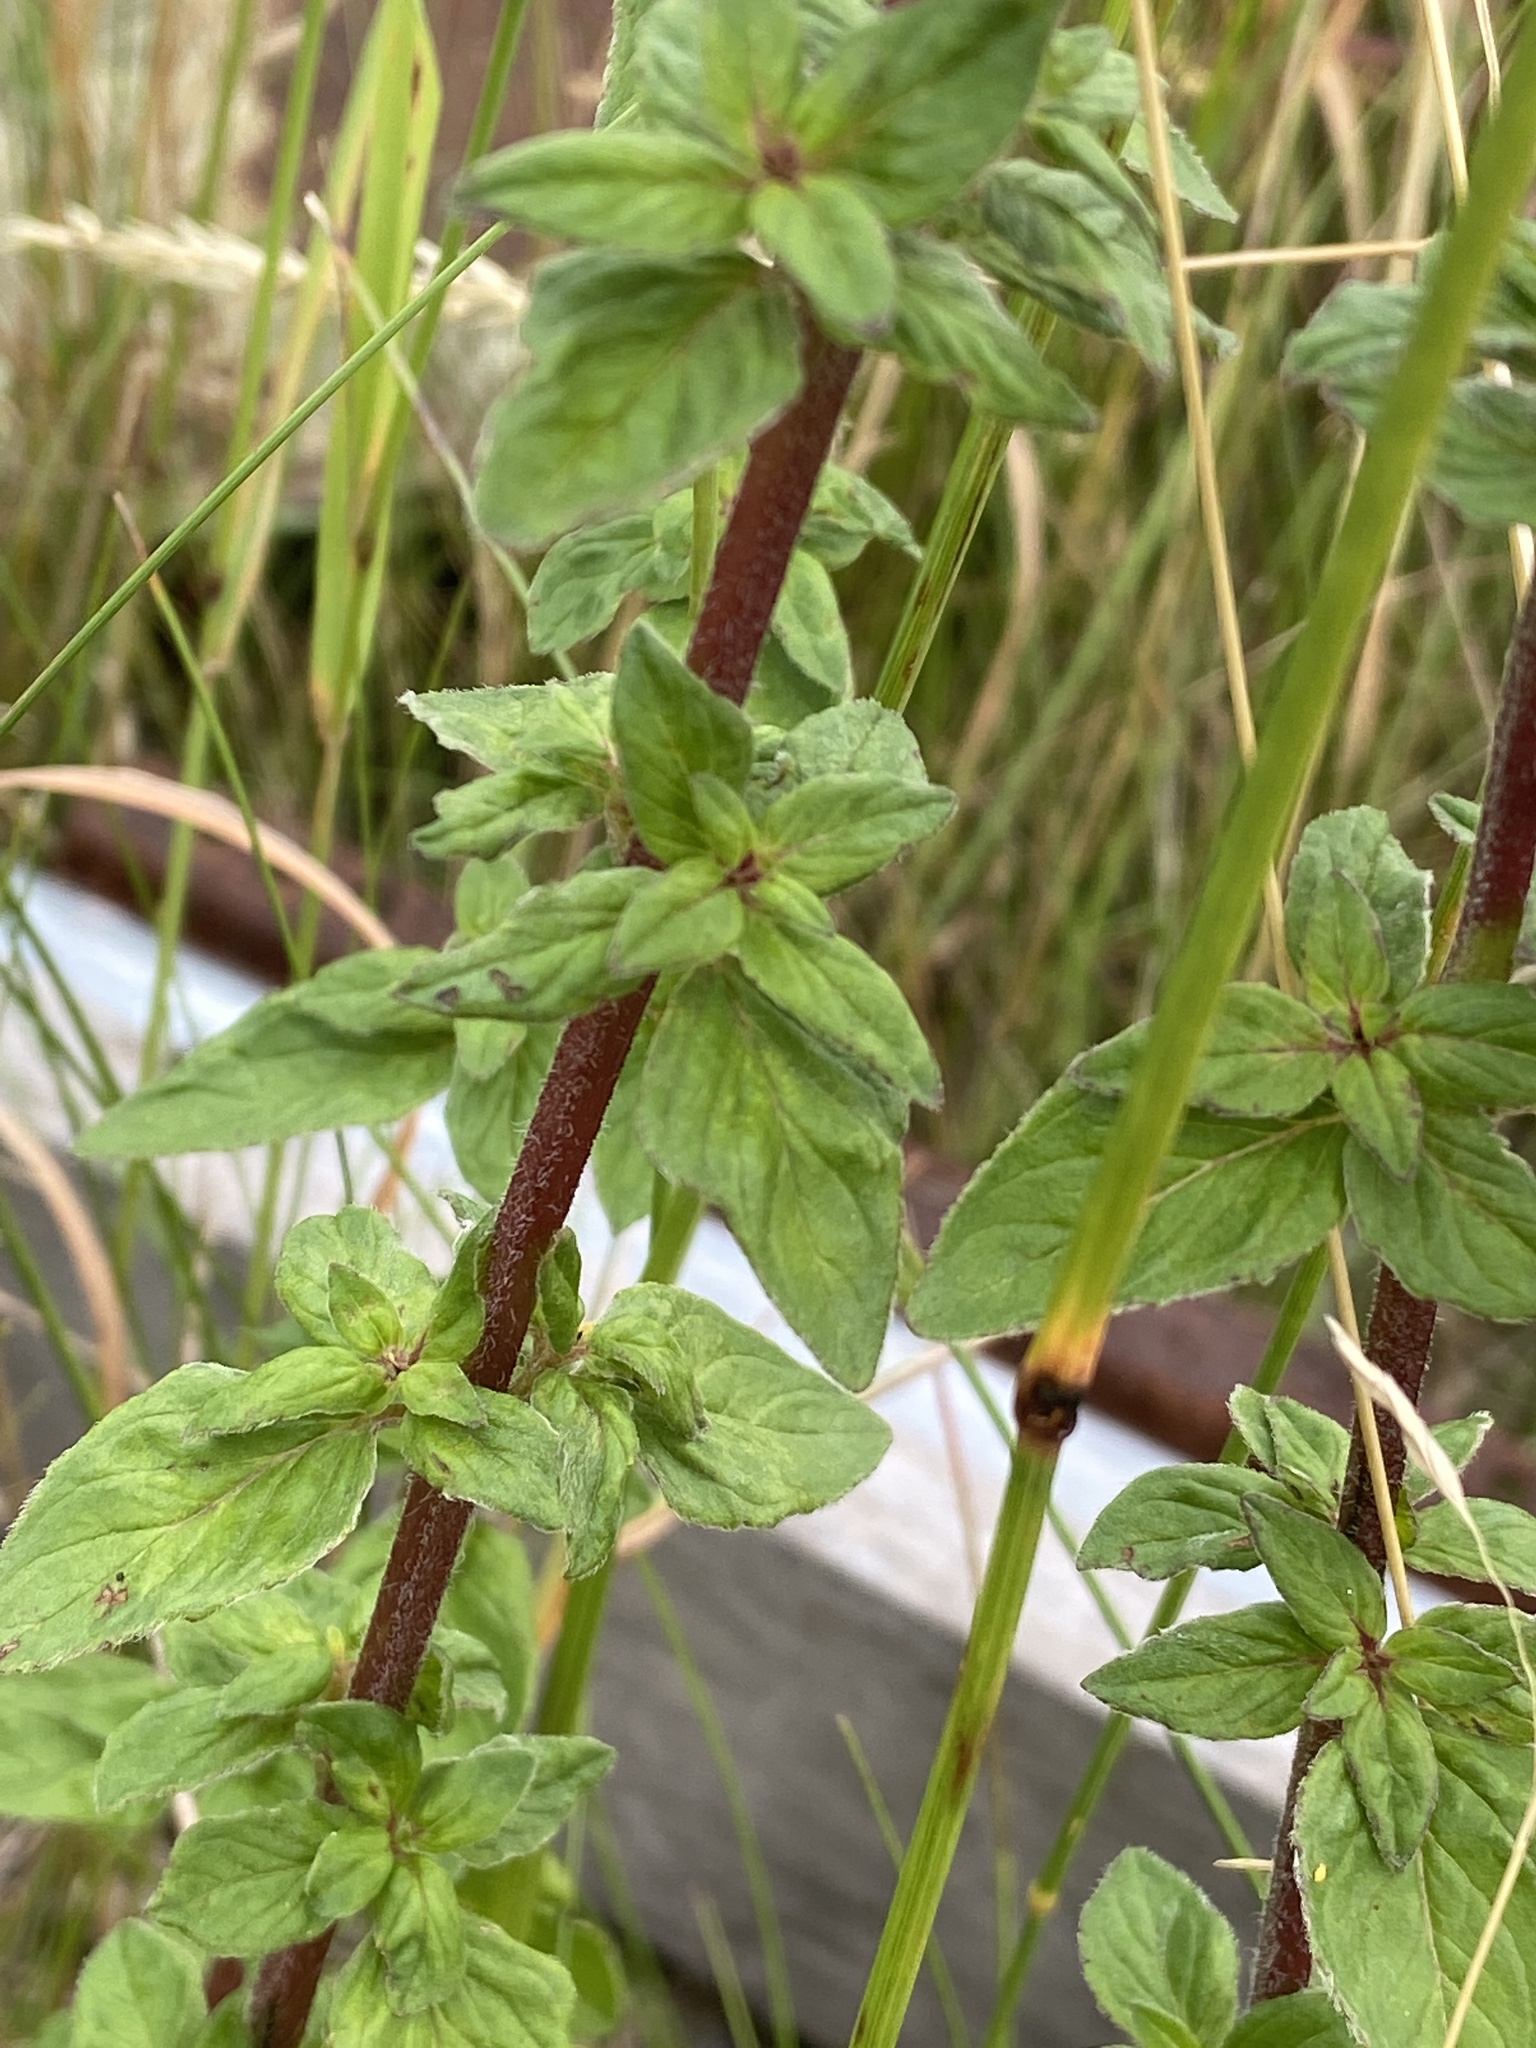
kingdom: Plantae
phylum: Tracheophyta
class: Magnoliopsida
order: Lamiales
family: Lamiaceae
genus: Origanum
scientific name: Origanum vulgare
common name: Wild marjoram
